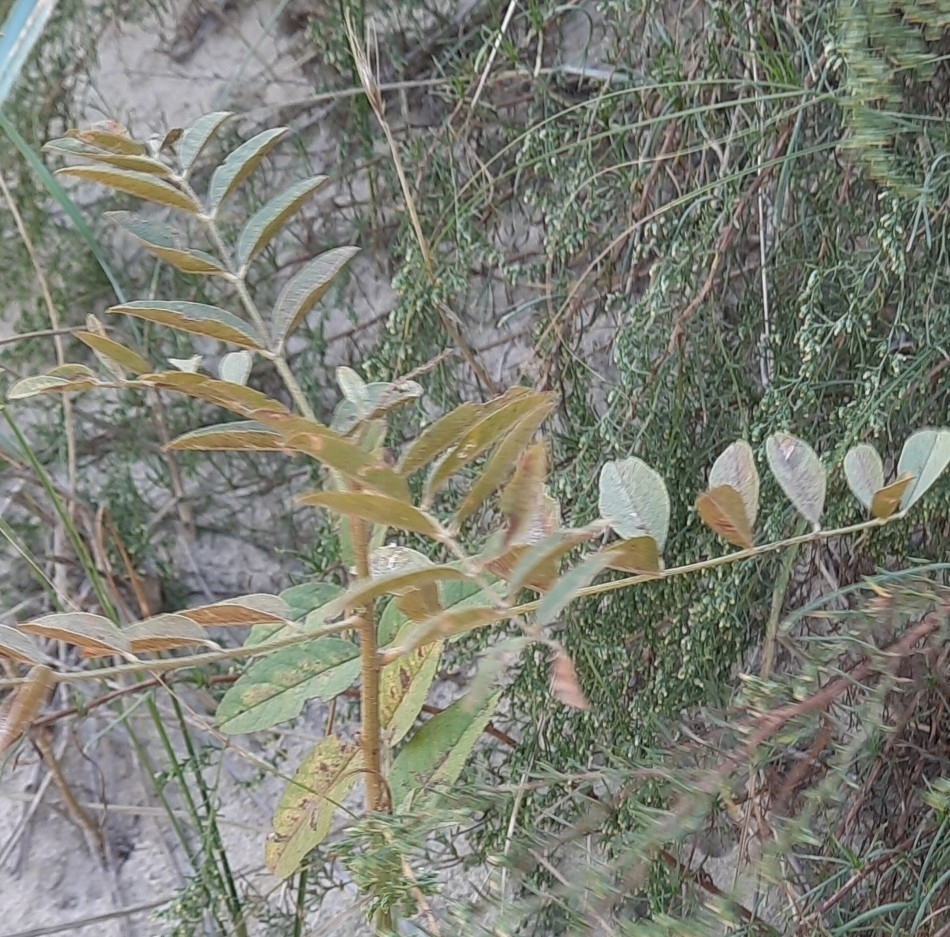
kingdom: Plantae
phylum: Tracheophyta
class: Magnoliopsida
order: Fabales
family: Fabaceae
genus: Glycyrrhiza
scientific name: Glycyrrhiza glabra
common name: Liquorice
